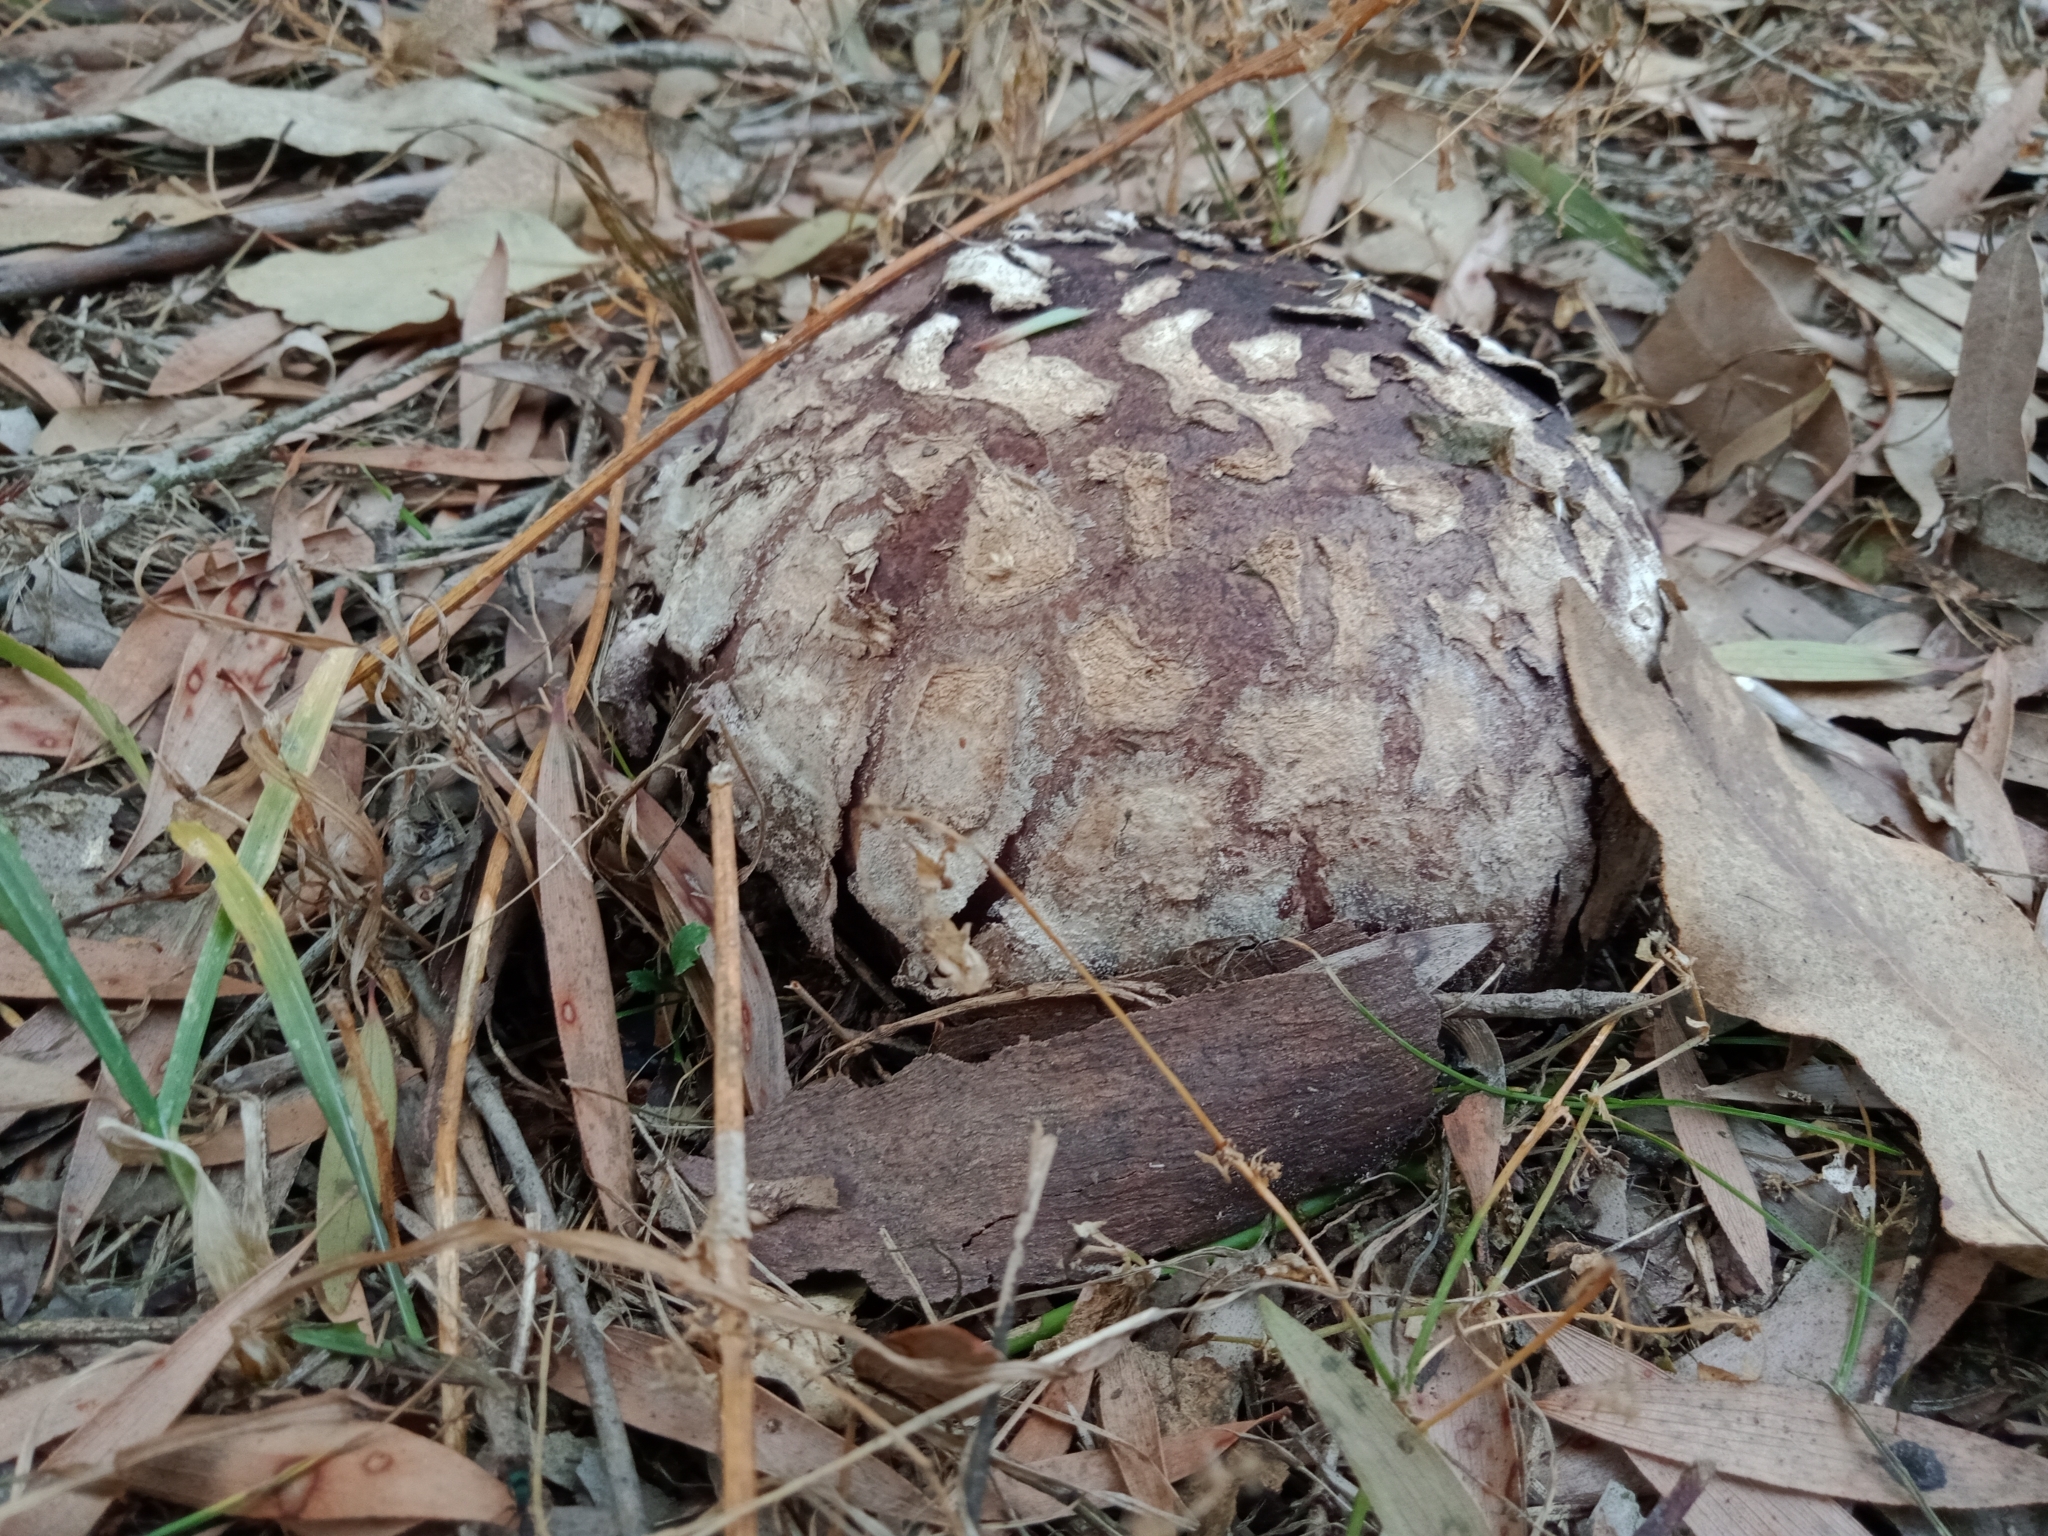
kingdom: Fungi
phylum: Basidiomycota
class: Agaricomycetes
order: Agaricales
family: Lycoperdaceae
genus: Calvatia
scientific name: Calvatia lilacina
